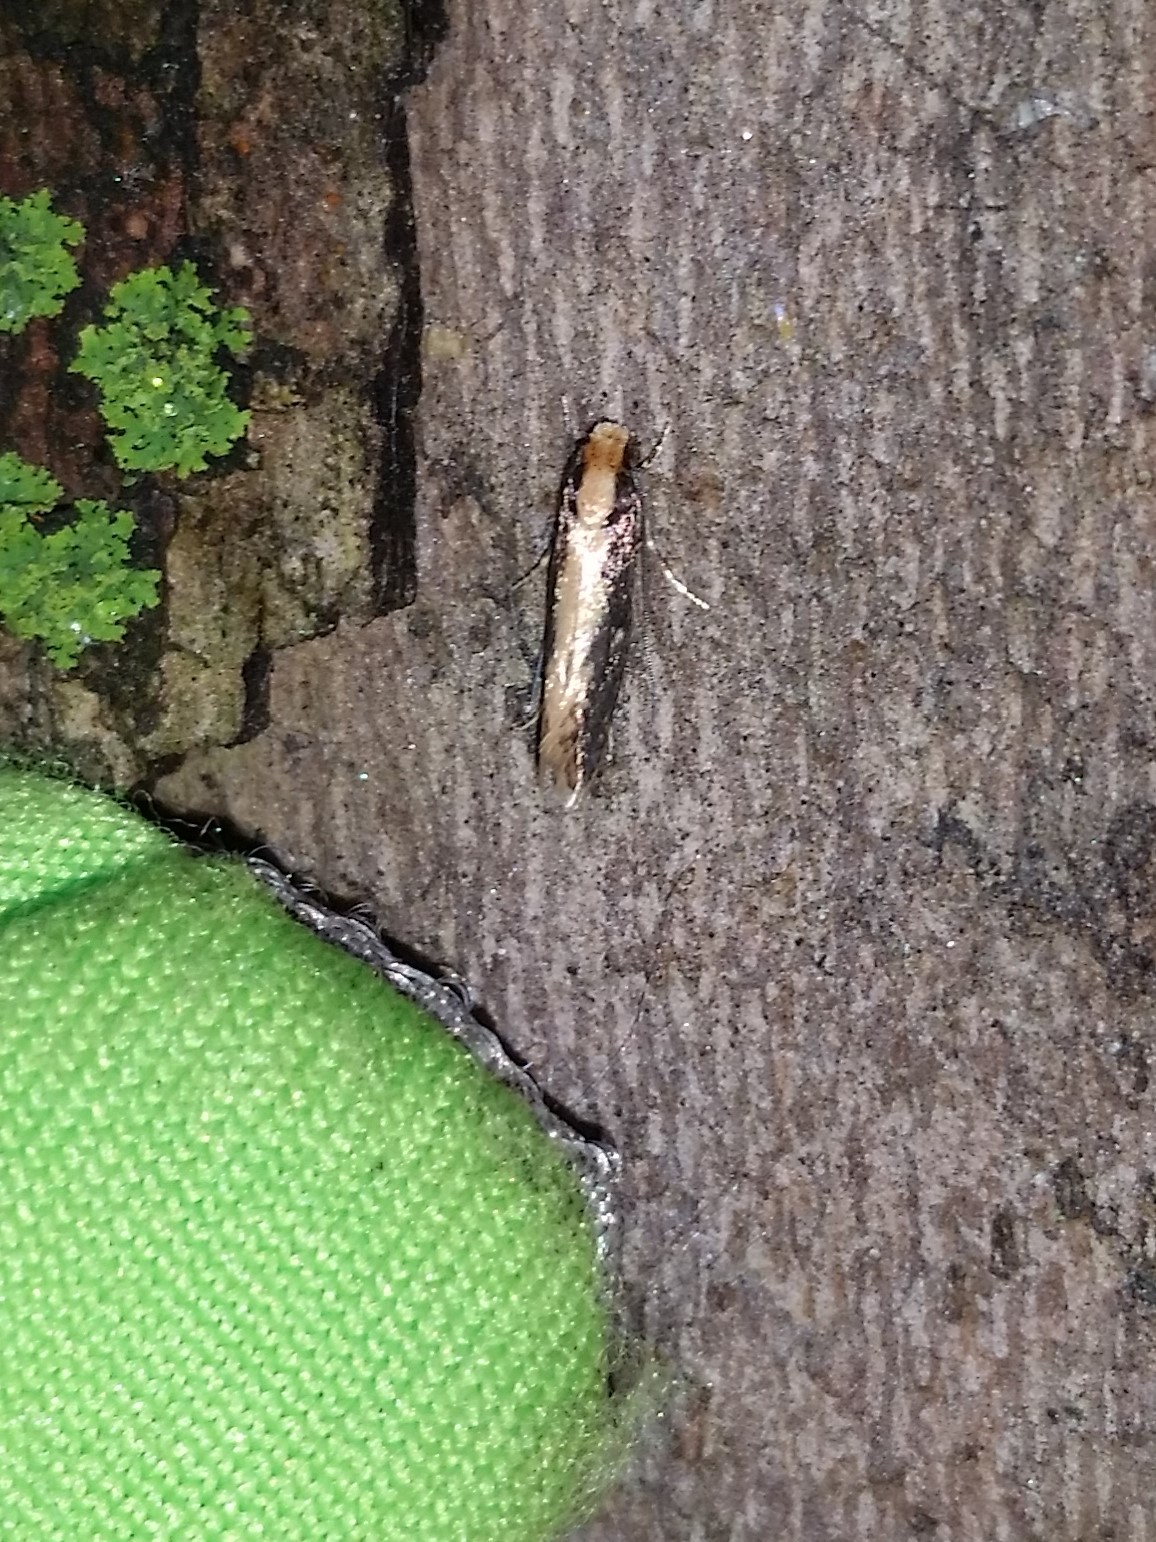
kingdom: Animalia
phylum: Arthropoda
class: Insecta
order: Lepidoptera
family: Tineidae
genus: Monopis
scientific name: Monopis crocicapitella
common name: Moth
